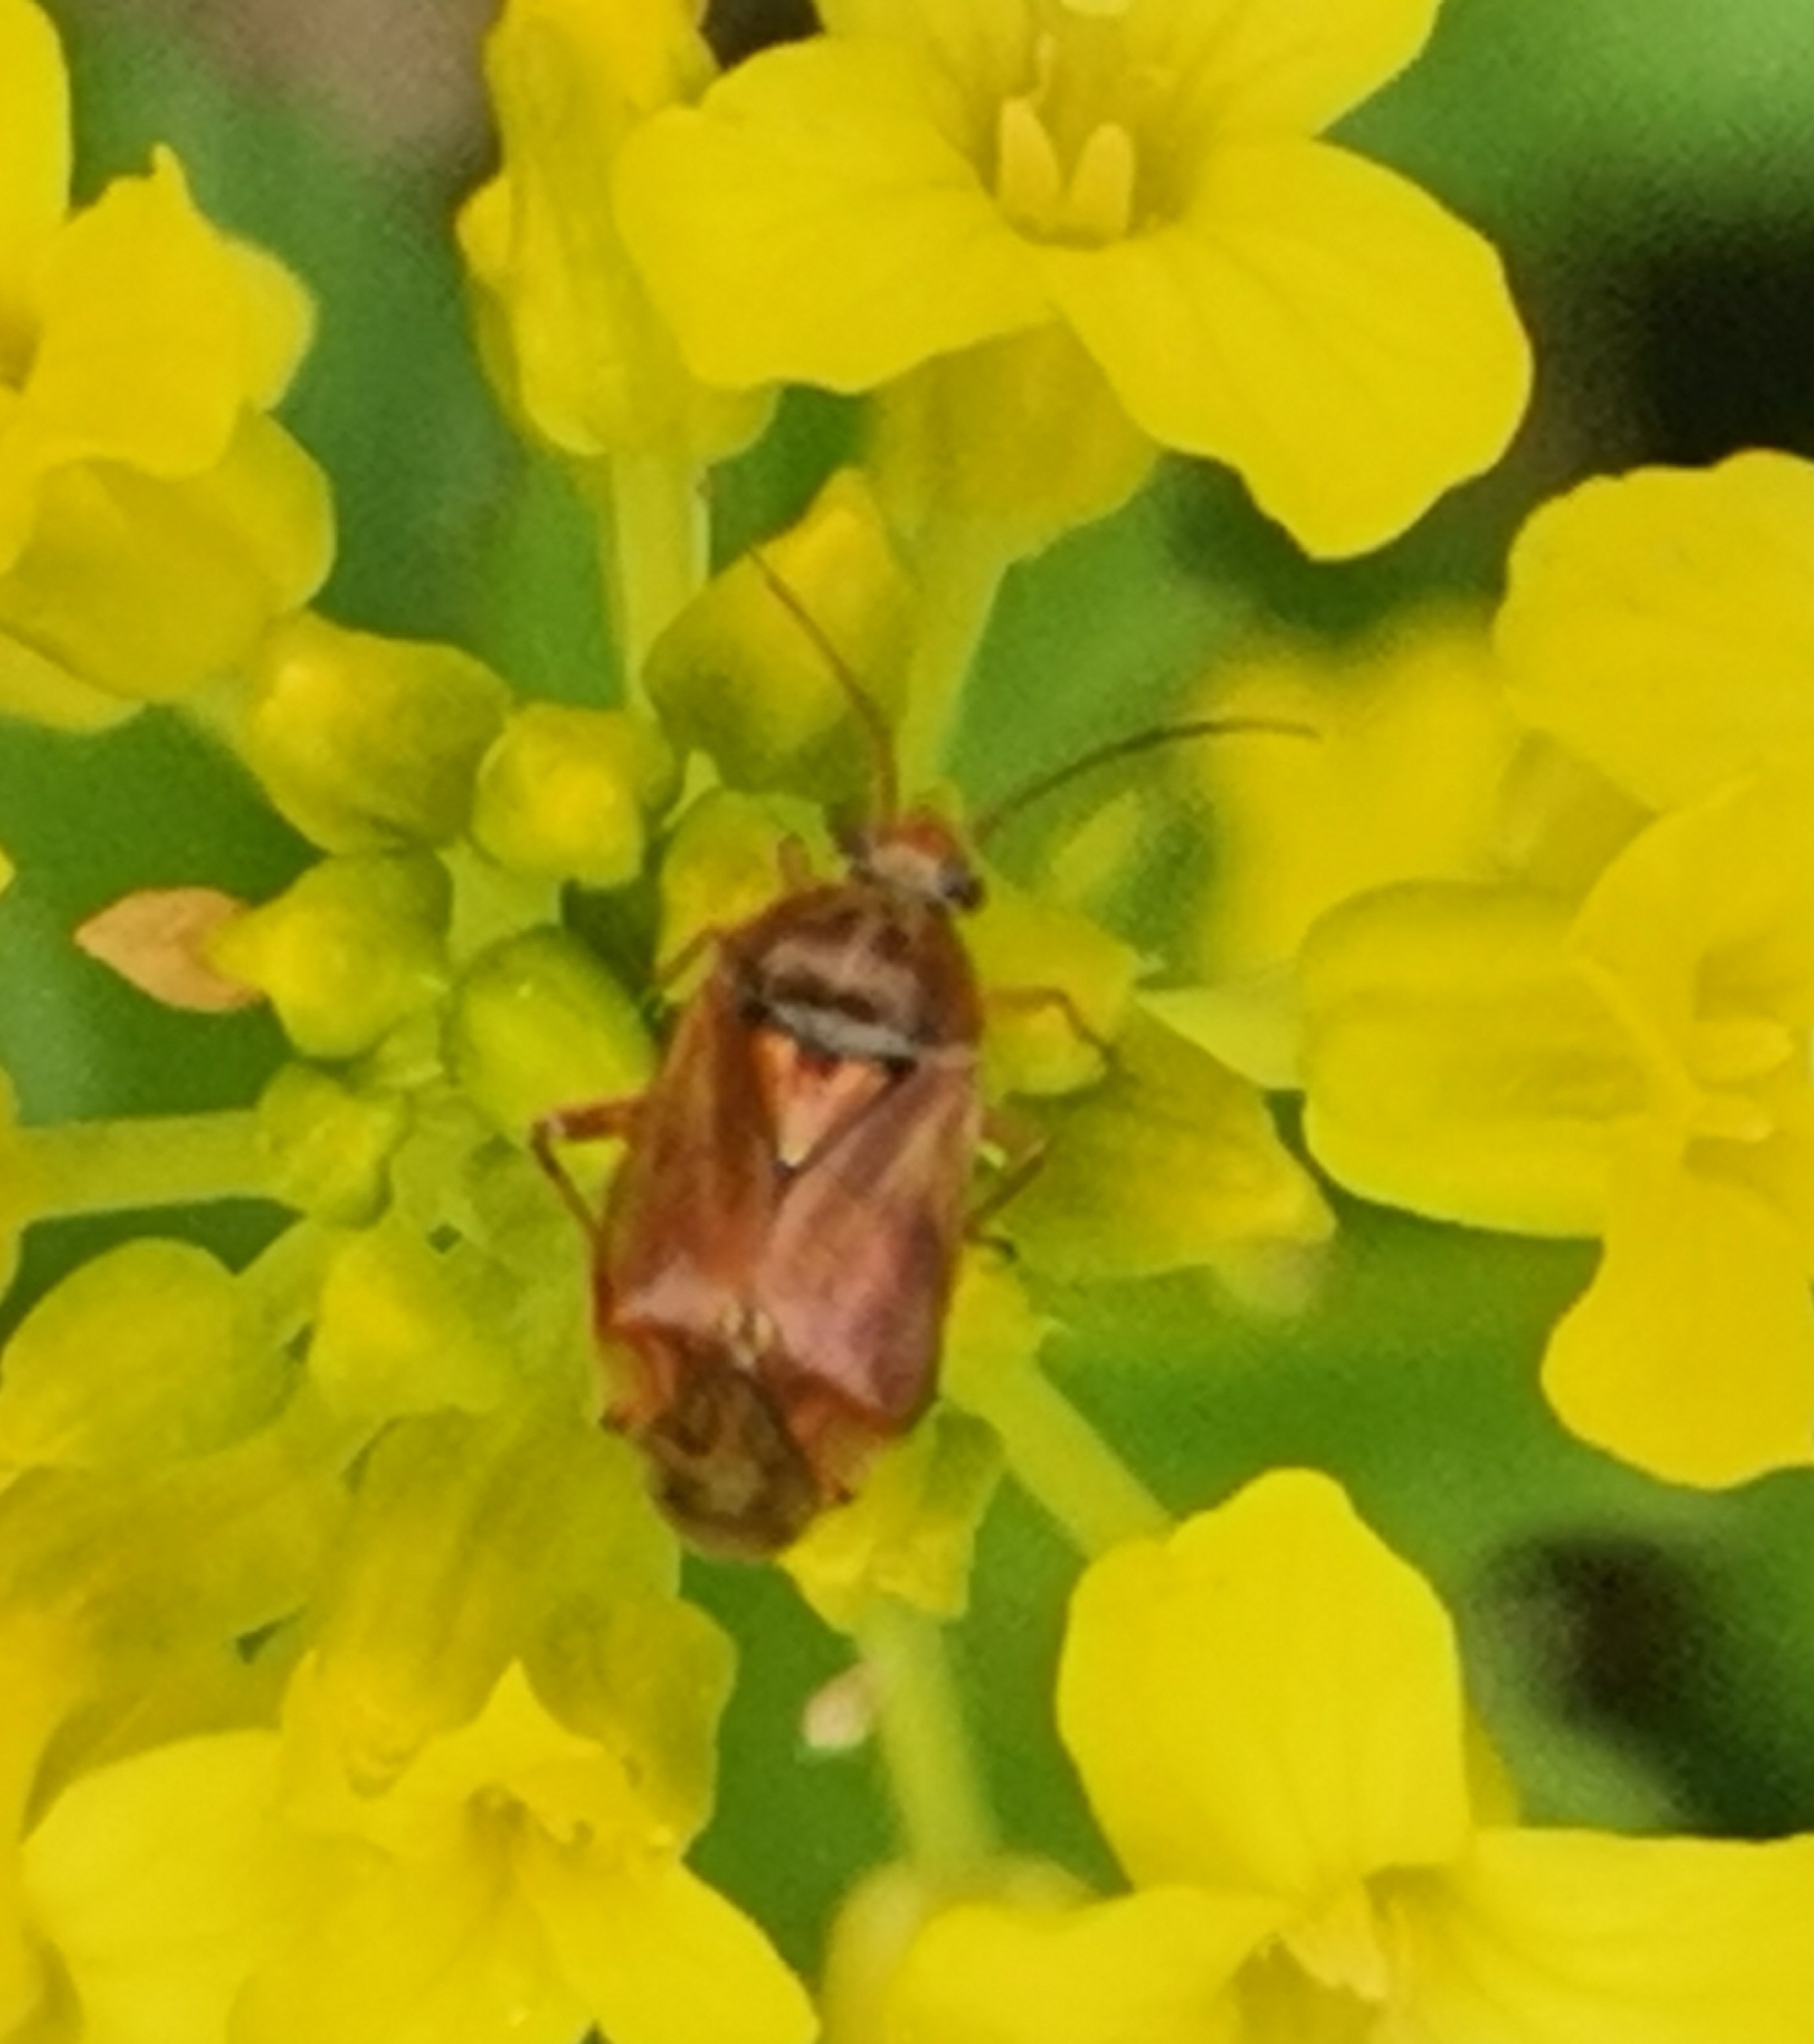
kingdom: Animalia
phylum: Arthropoda
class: Insecta
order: Hemiptera
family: Miridae
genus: Lygus
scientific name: Lygus wagneri
